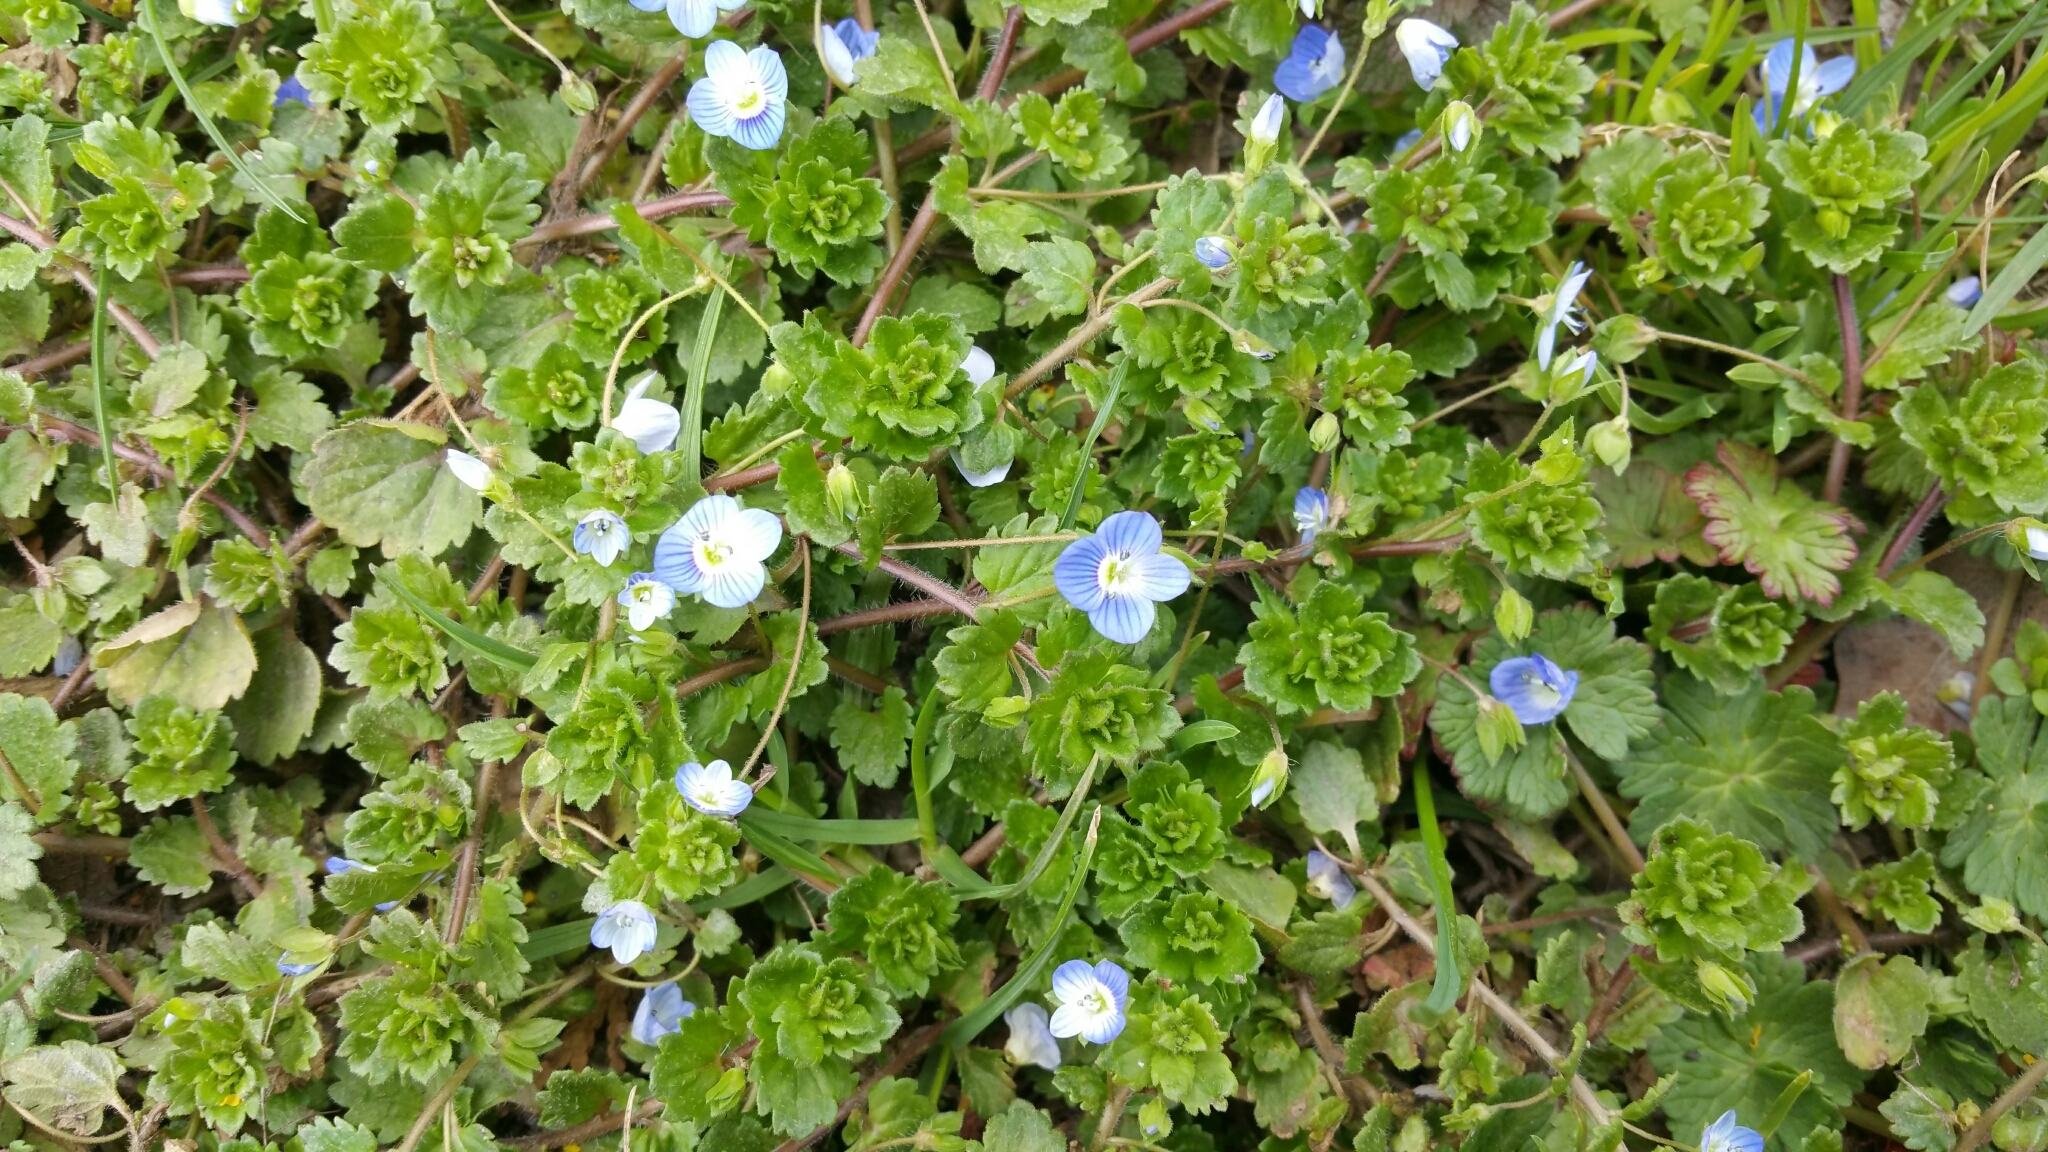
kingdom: Plantae
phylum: Tracheophyta
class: Magnoliopsida
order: Lamiales
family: Plantaginaceae
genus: Veronica
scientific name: Veronica persica
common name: Common field-speedwell
